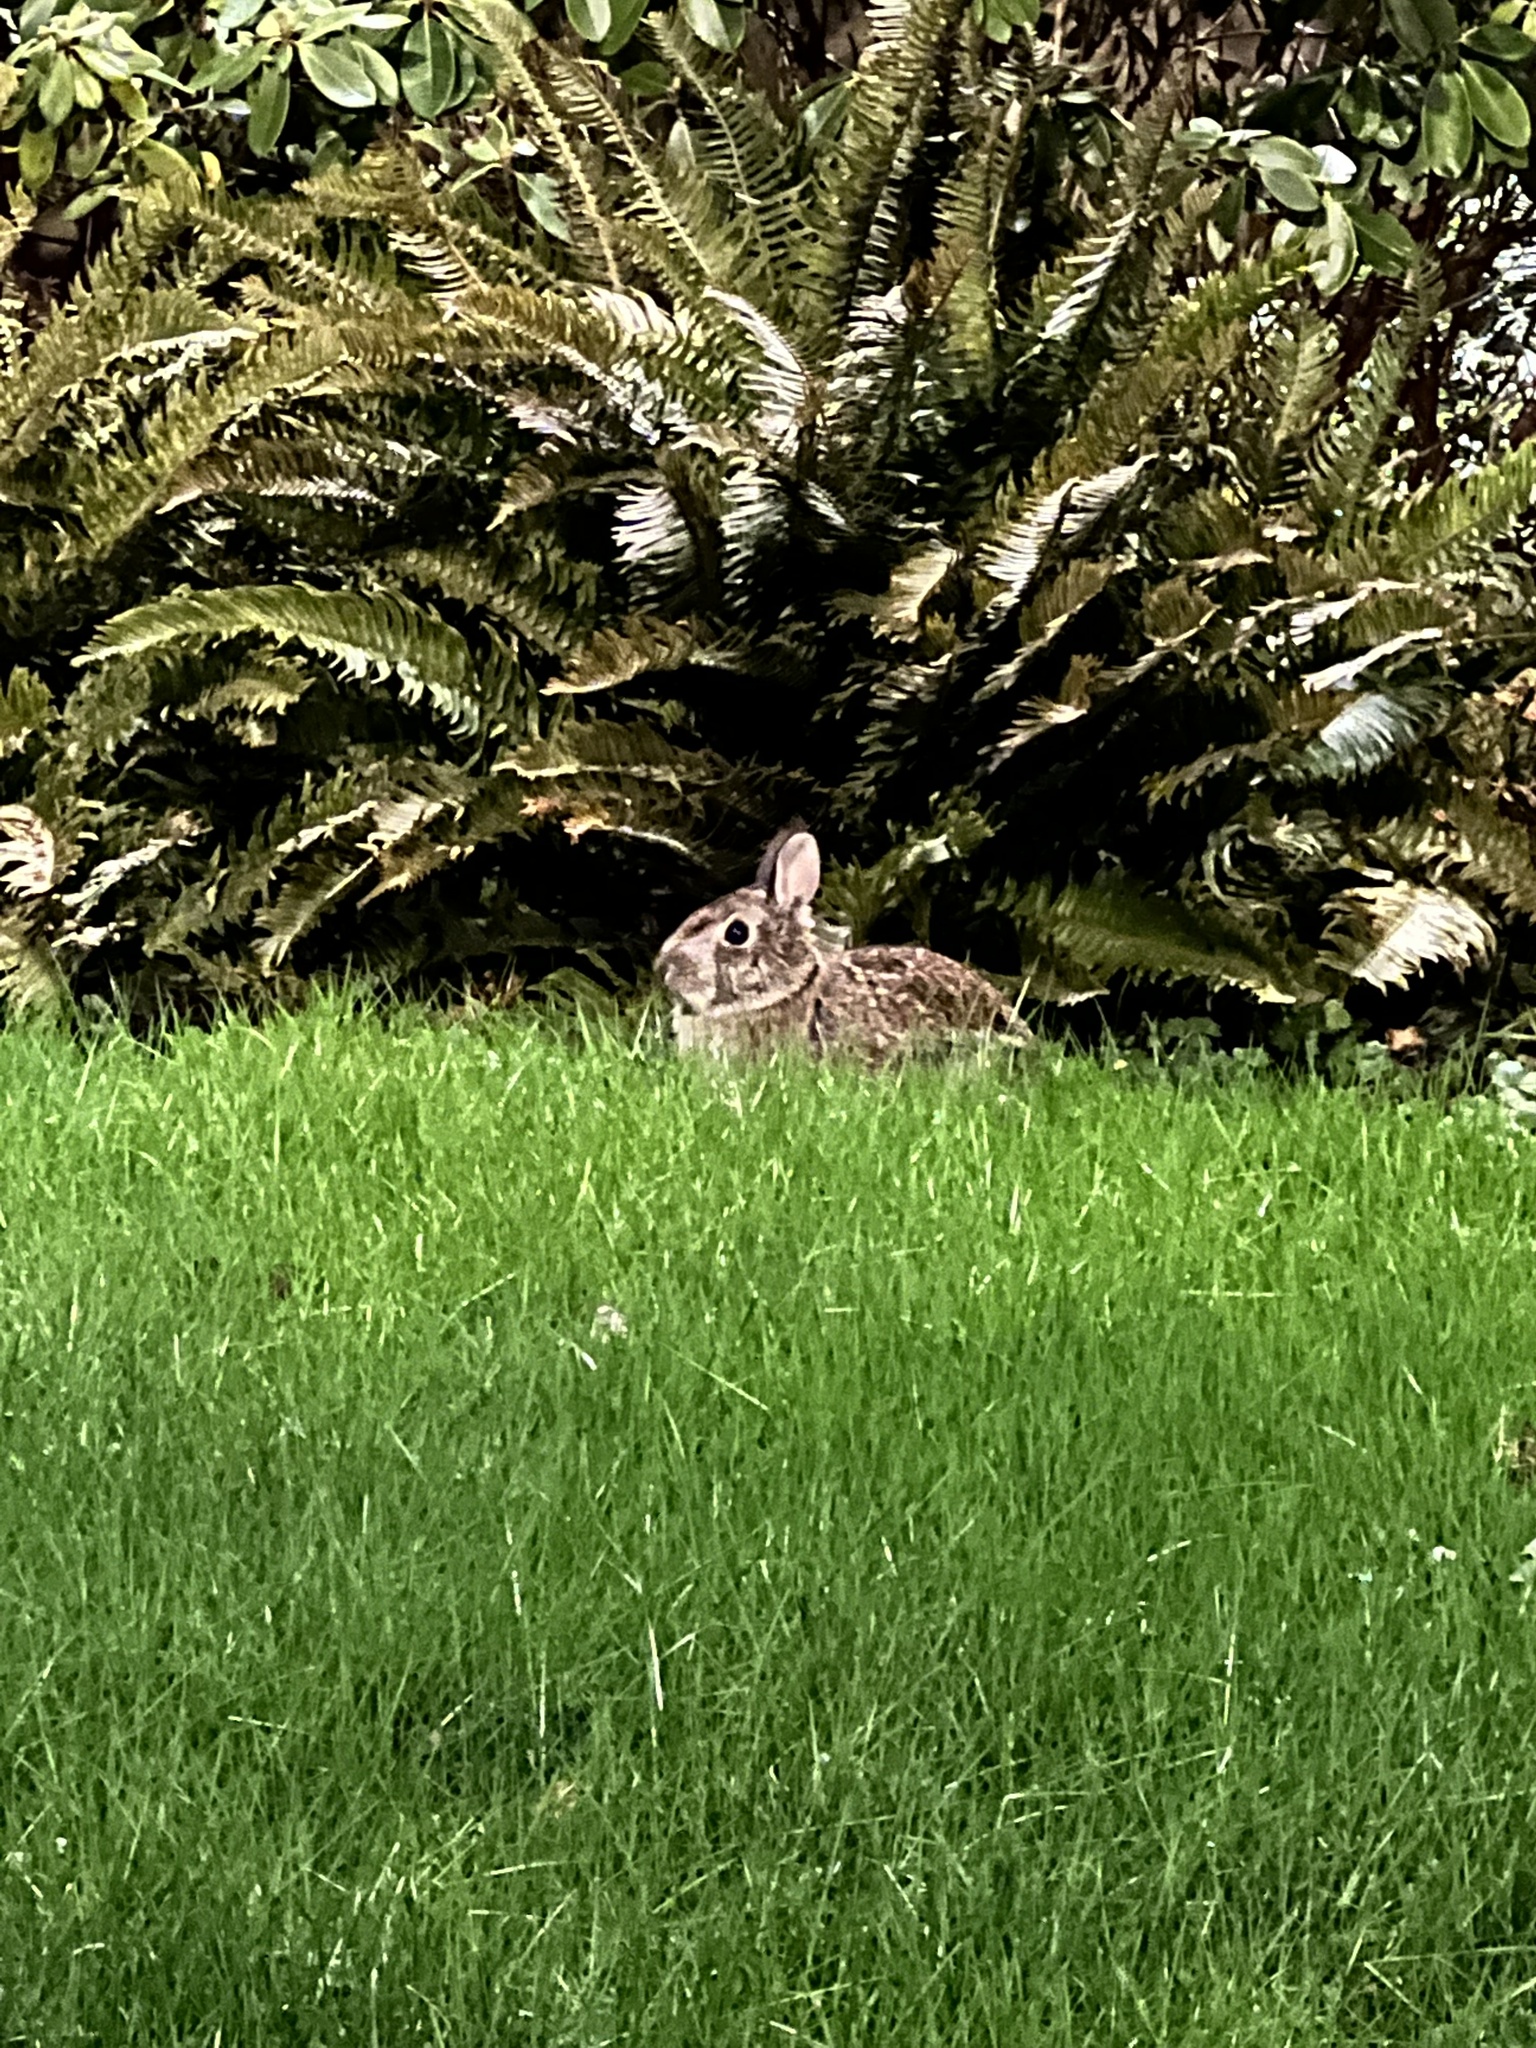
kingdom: Animalia
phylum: Chordata
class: Mammalia
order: Lagomorpha
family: Leporidae
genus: Sylvilagus
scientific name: Sylvilagus floridanus
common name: Eastern cottontail
